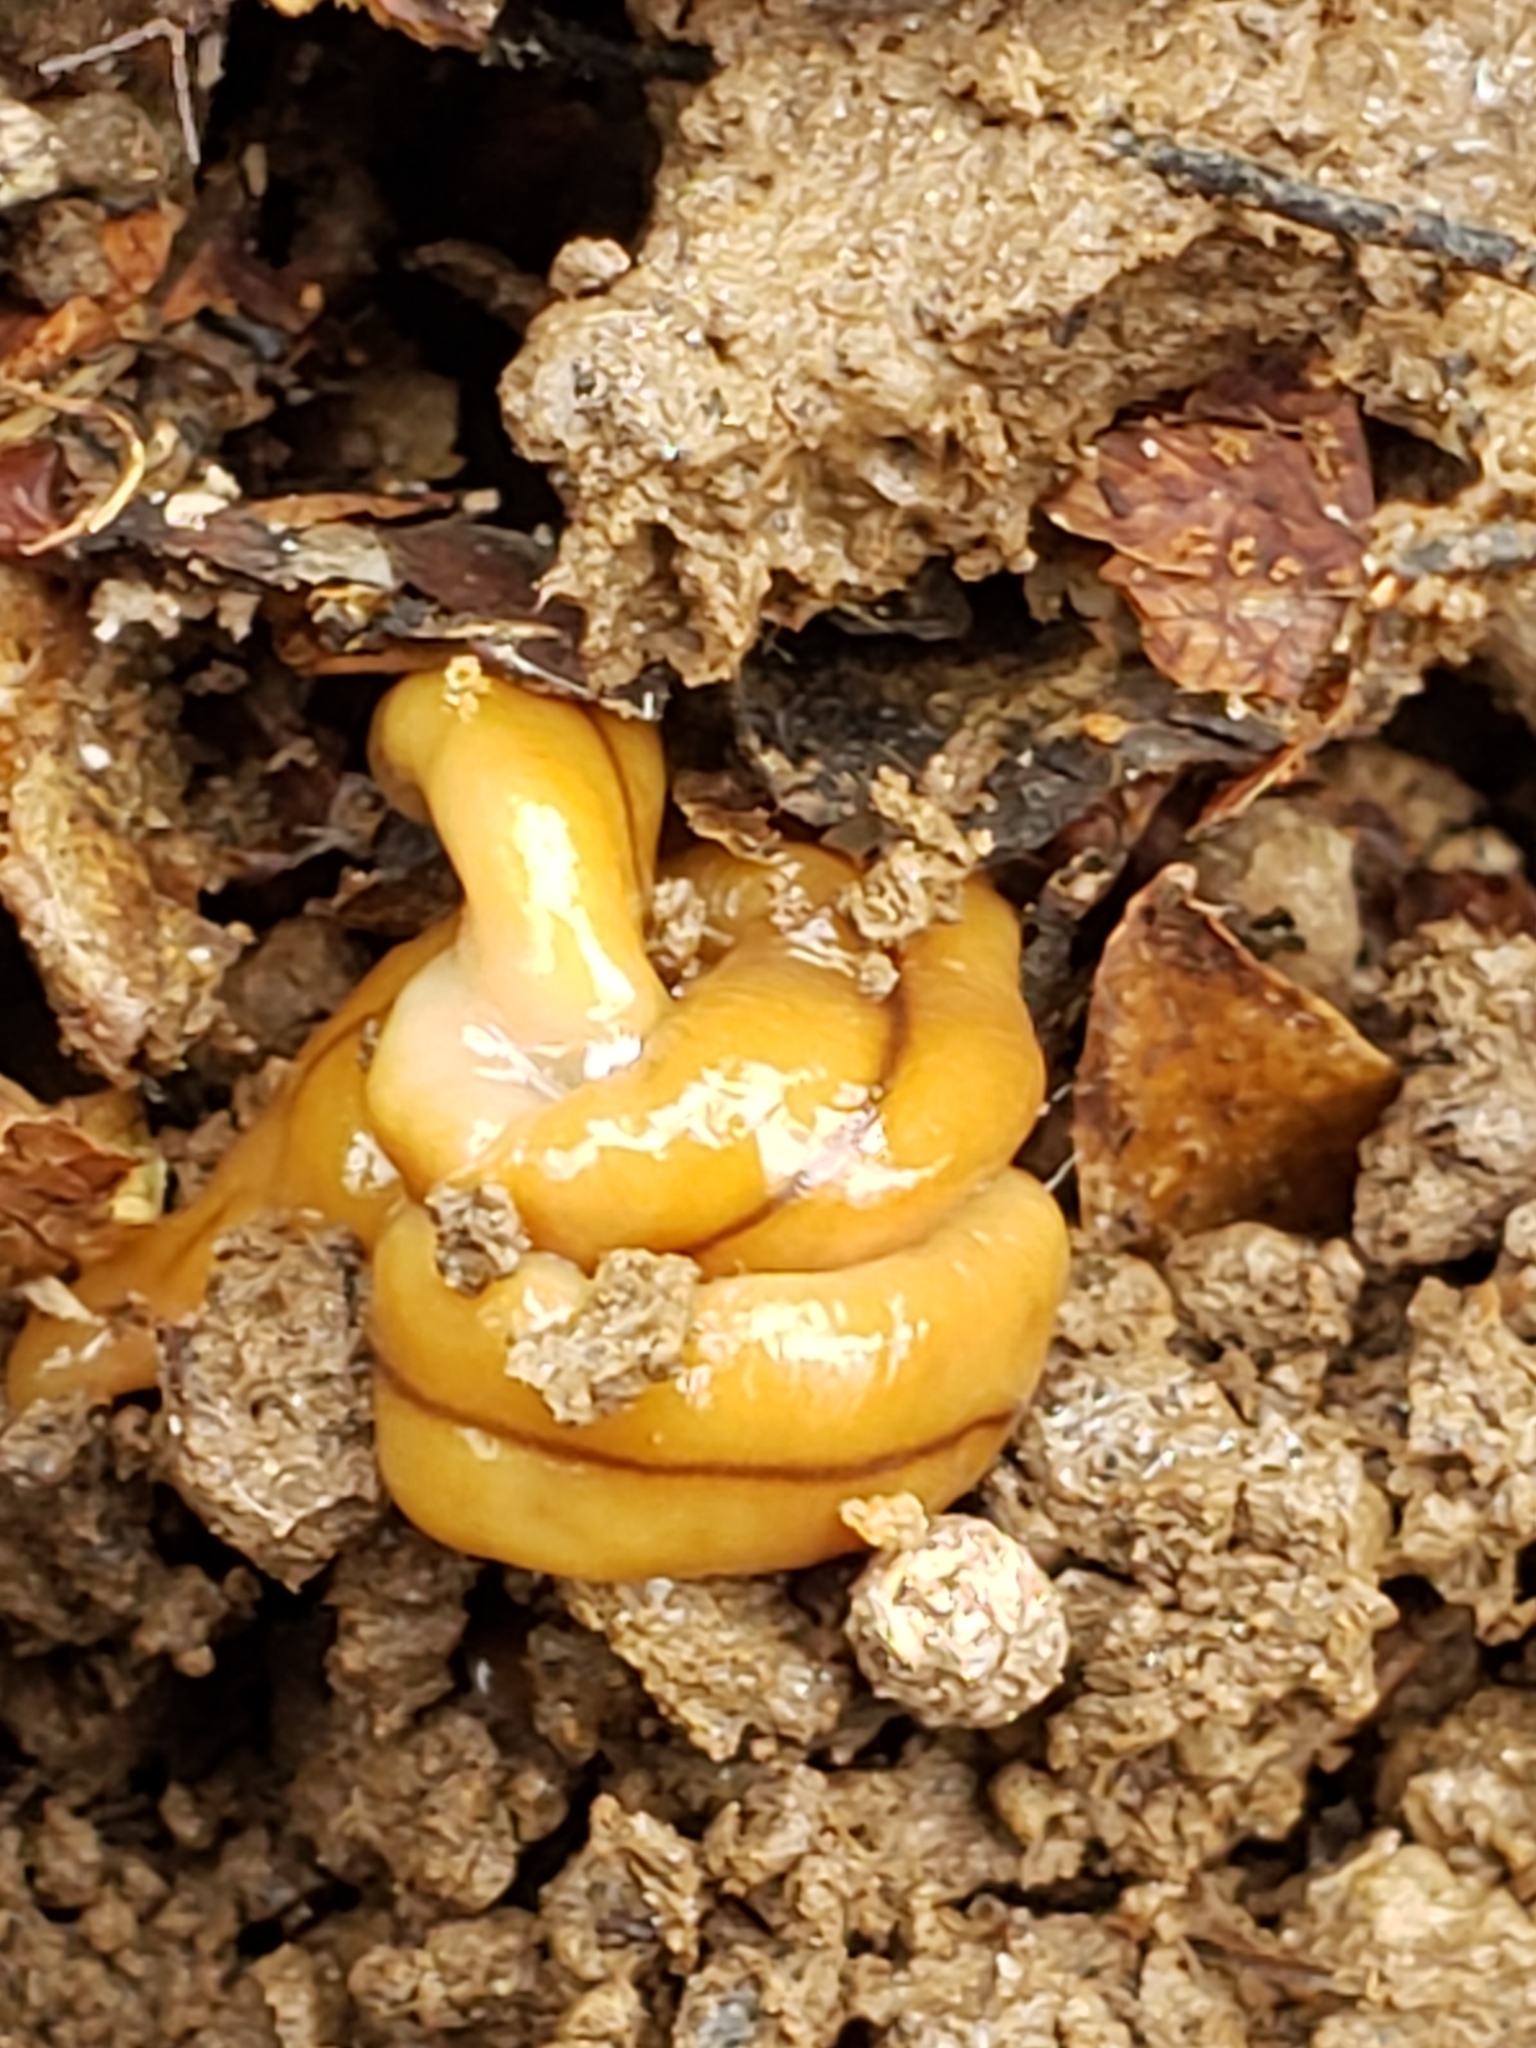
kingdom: Animalia
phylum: Platyhelminthes
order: Tricladida
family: Geoplanidae
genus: Bipalium
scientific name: Bipalium adventitium
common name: Land planarian
